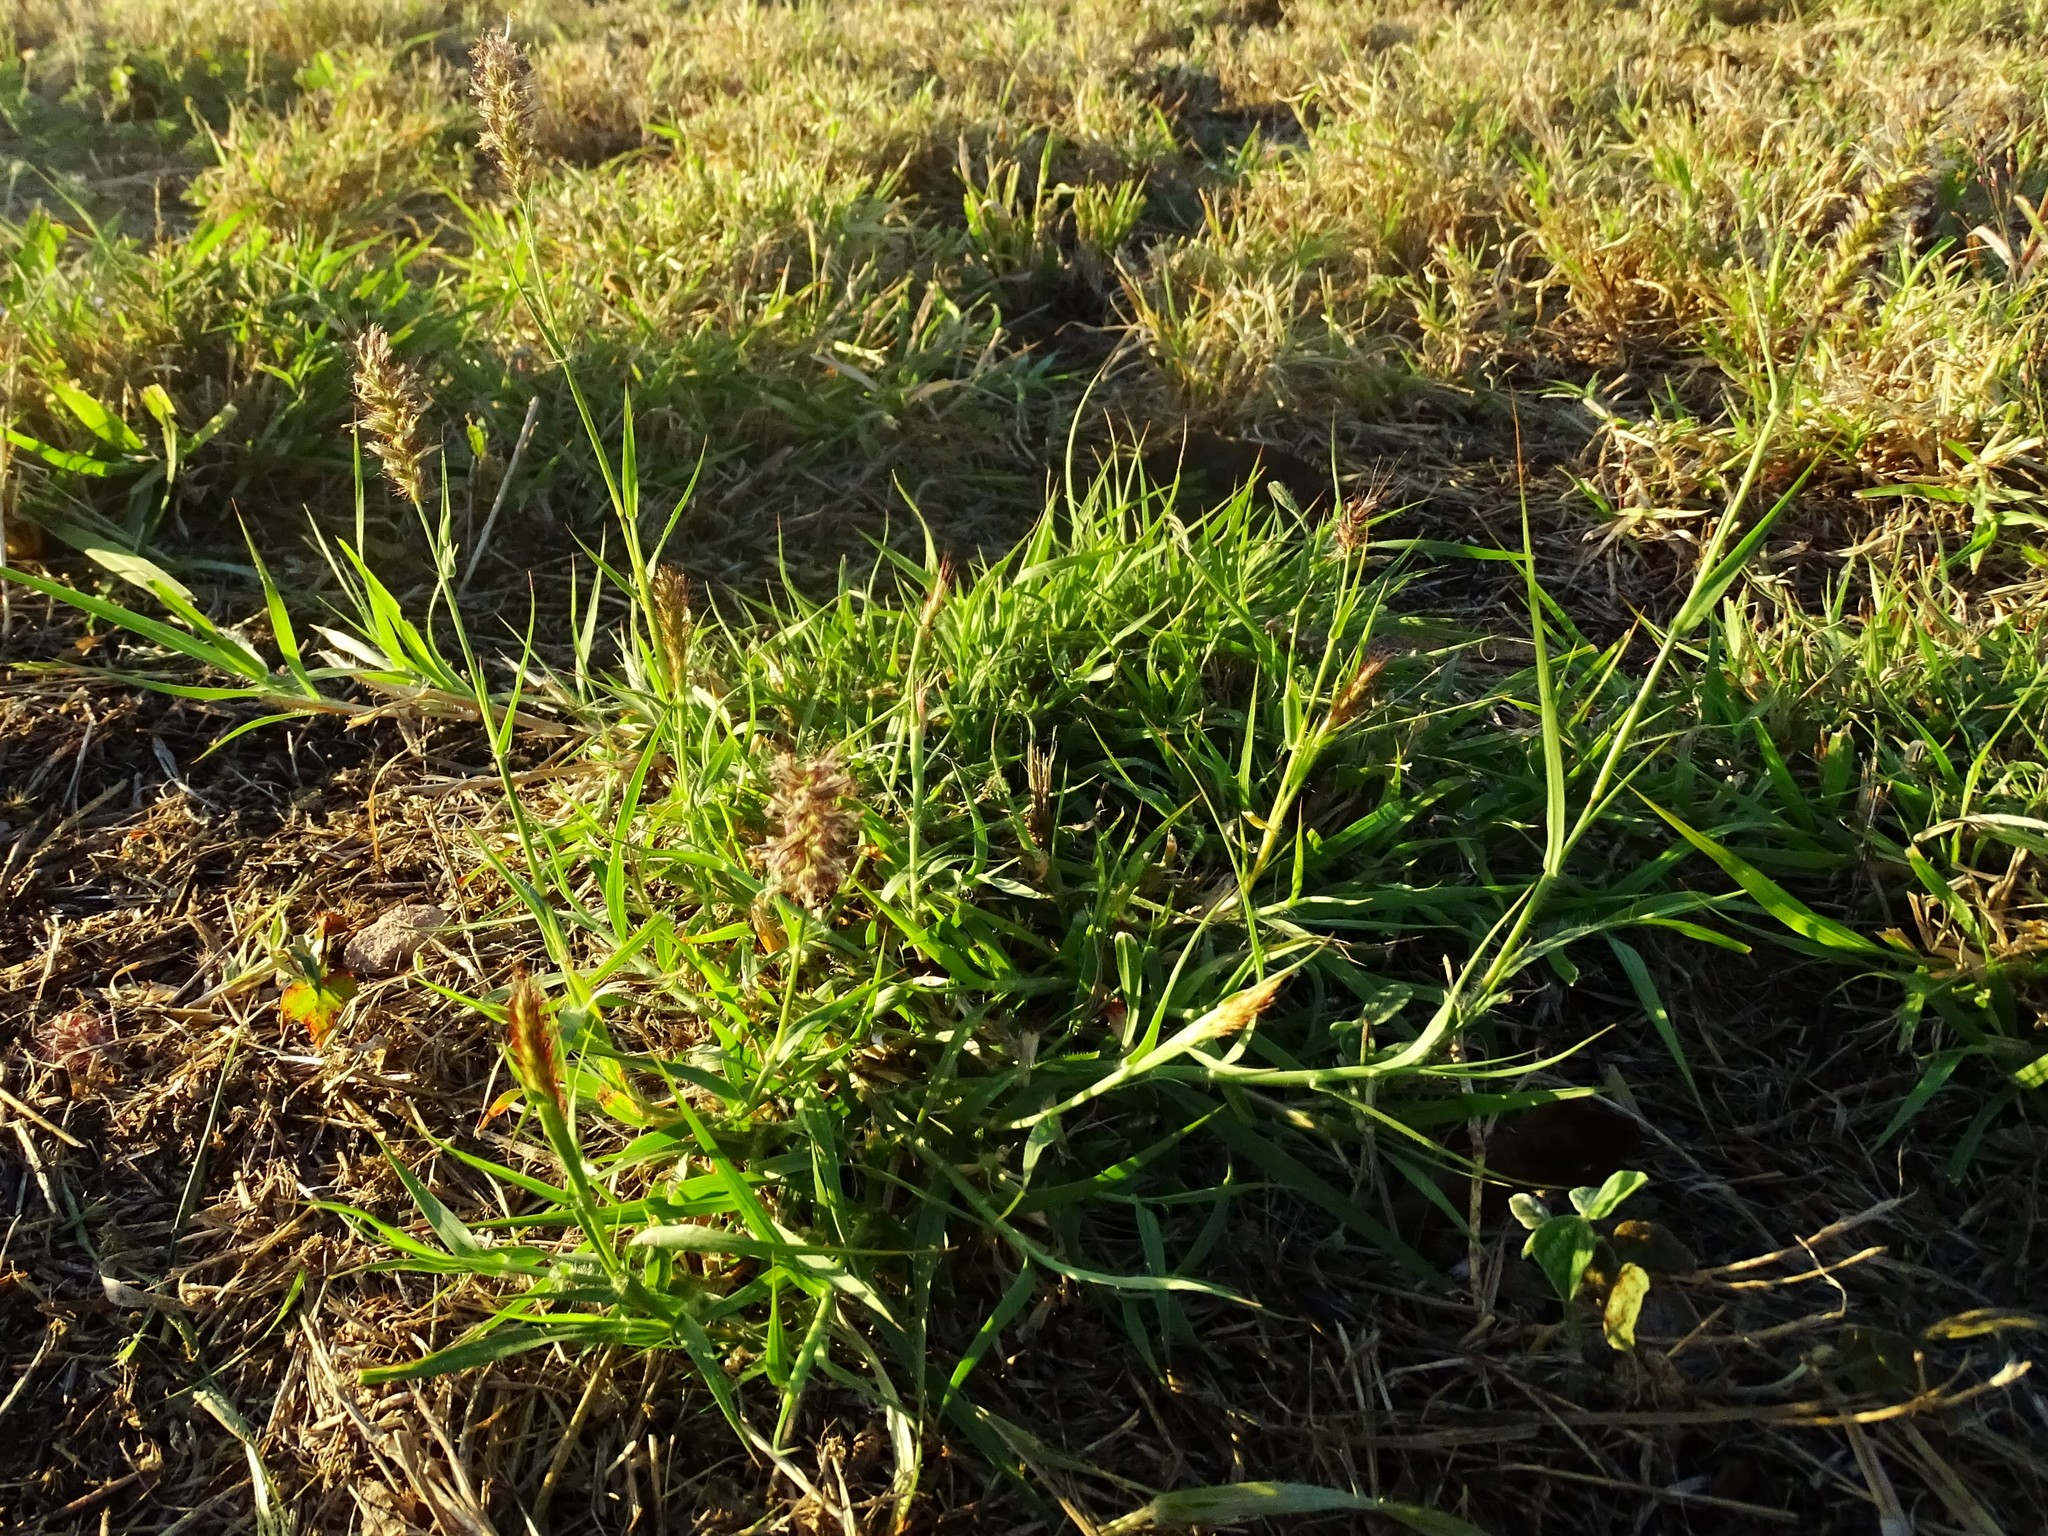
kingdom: Plantae
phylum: Tracheophyta
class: Liliopsida
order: Poales
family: Poaceae
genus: Cenchrus
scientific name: Cenchrus ciliaris
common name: Buffelgrass
